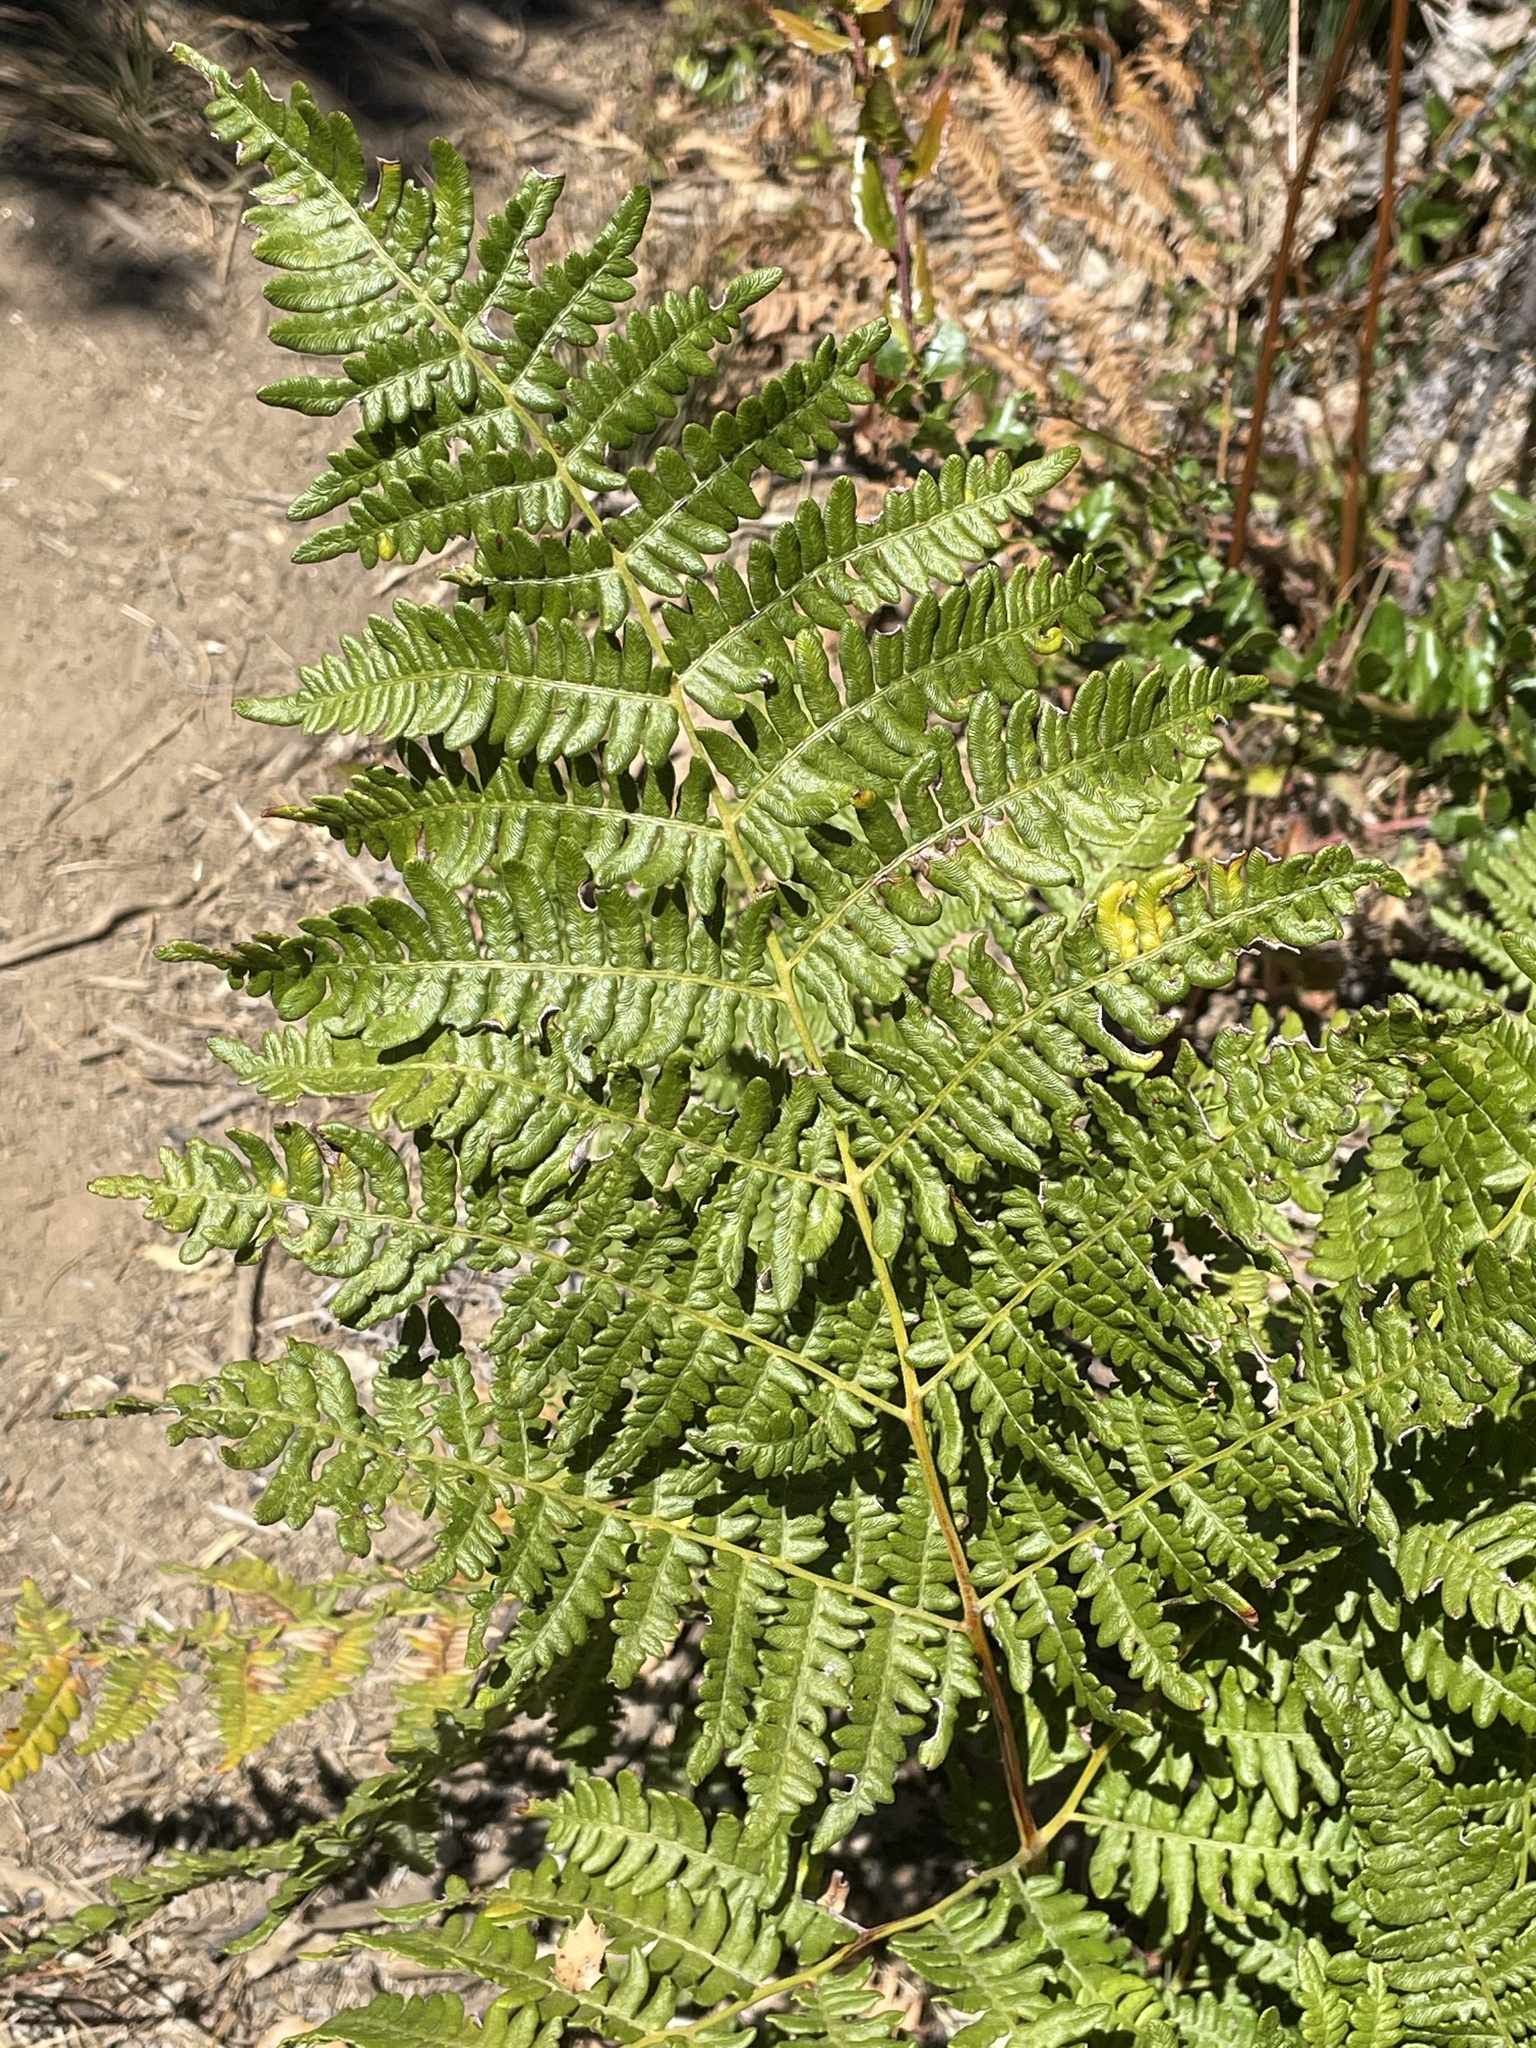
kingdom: Plantae
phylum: Tracheophyta
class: Polypodiopsida
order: Polypodiales
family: Dennstaedtiaceae
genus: Pteridium
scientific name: Pteridium aquilinum
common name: Bracken
